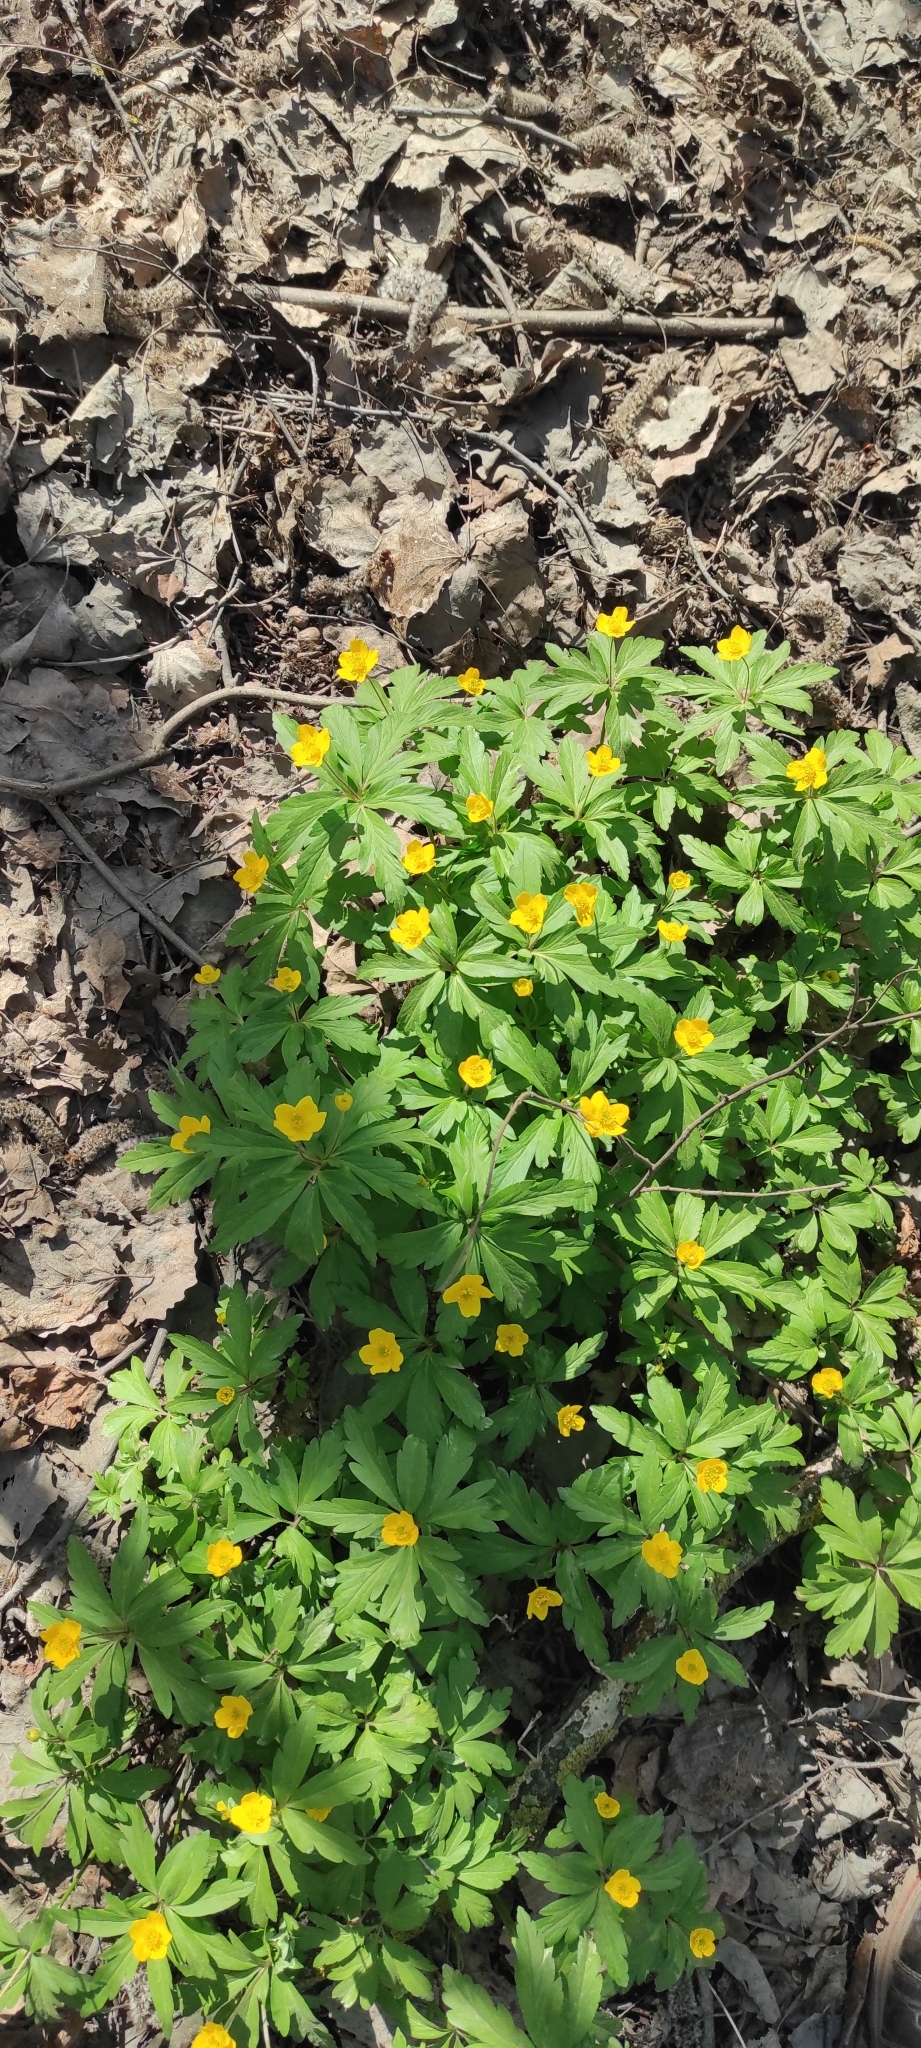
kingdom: Plantae
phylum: Tracheophyta
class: Magnoliopsida
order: Ranunculales
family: Ranunculaceae
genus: Anemone
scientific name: Anemone ranunculoides
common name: Yellow anemone
